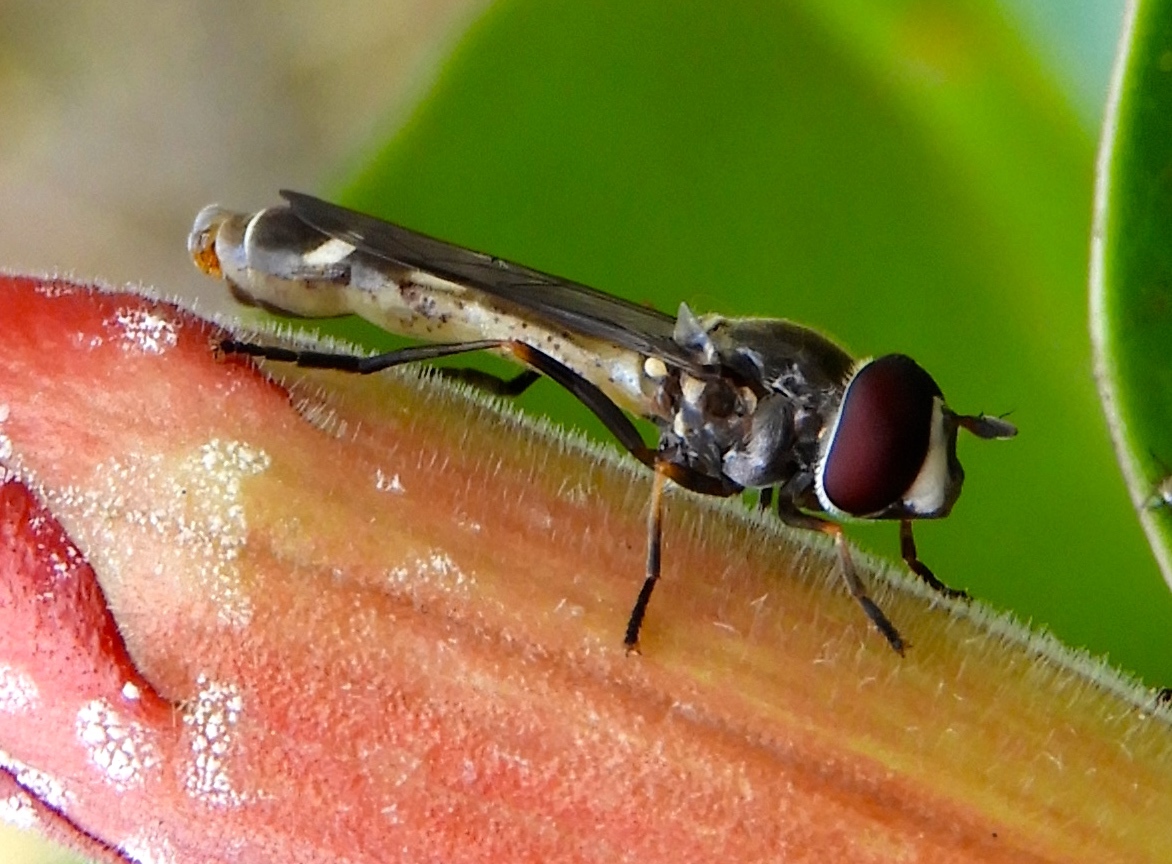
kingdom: Animalia
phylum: Arthropoda
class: Insecta
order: Diptera
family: Syrphidae
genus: Dioprosopa
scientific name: Dioprosopa
